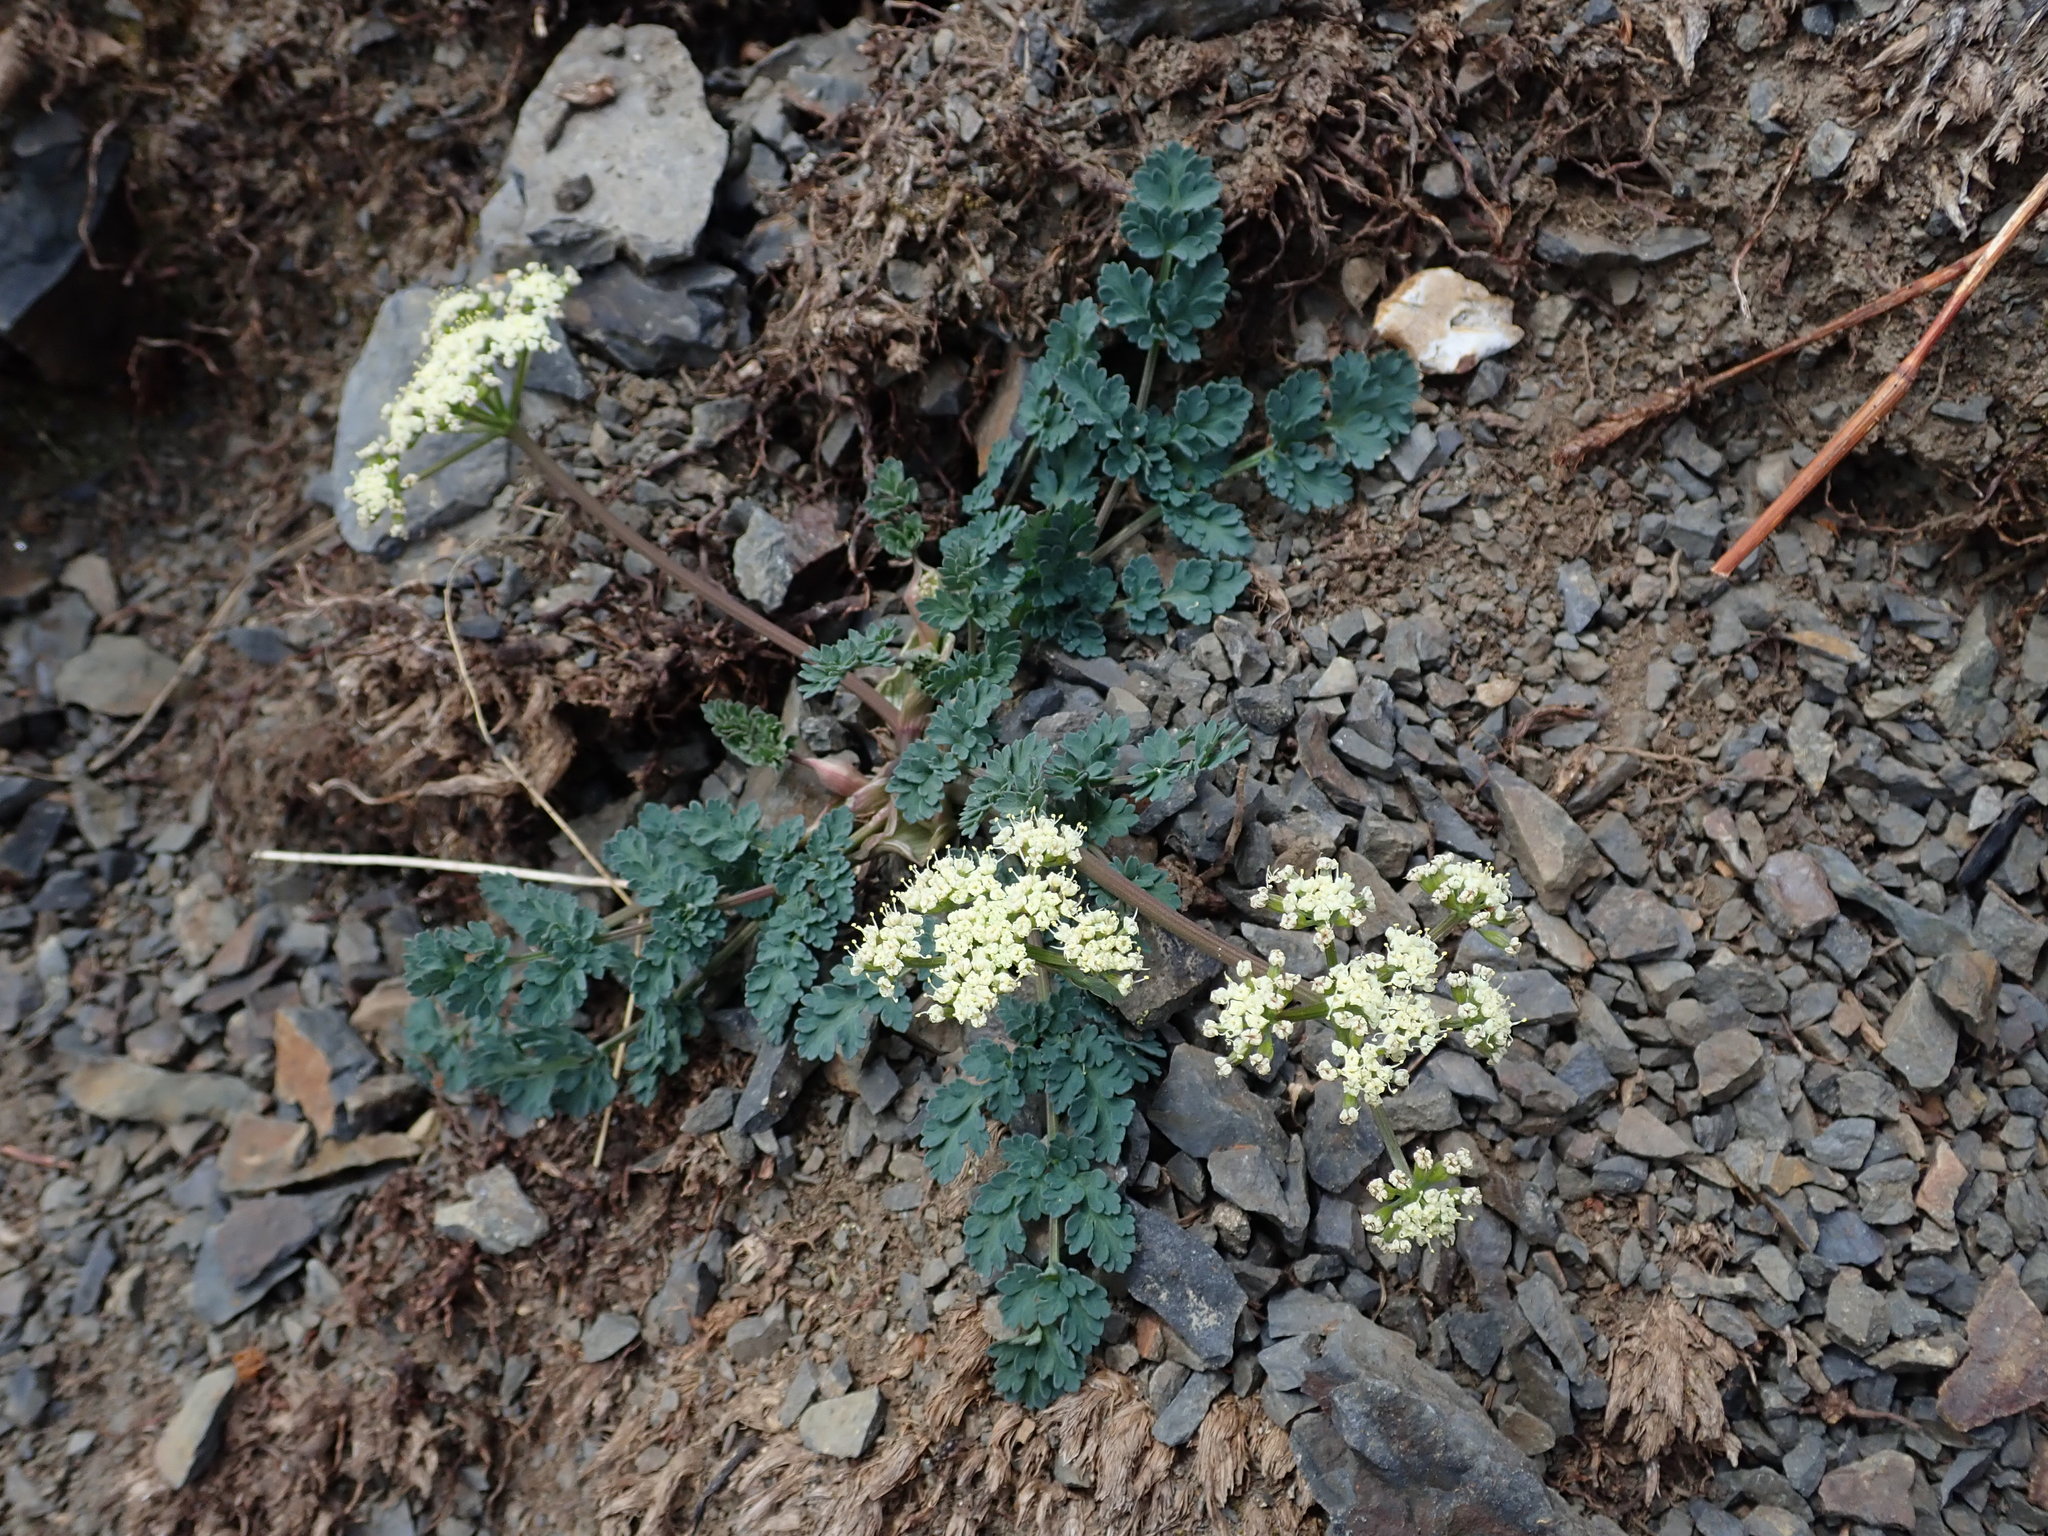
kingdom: Plantae
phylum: Tracheophyta
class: Magnoliopsida
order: Apiales
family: Apiaceae
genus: Lomatium
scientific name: Lomatium martindalei
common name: Cascade desert-parsley
